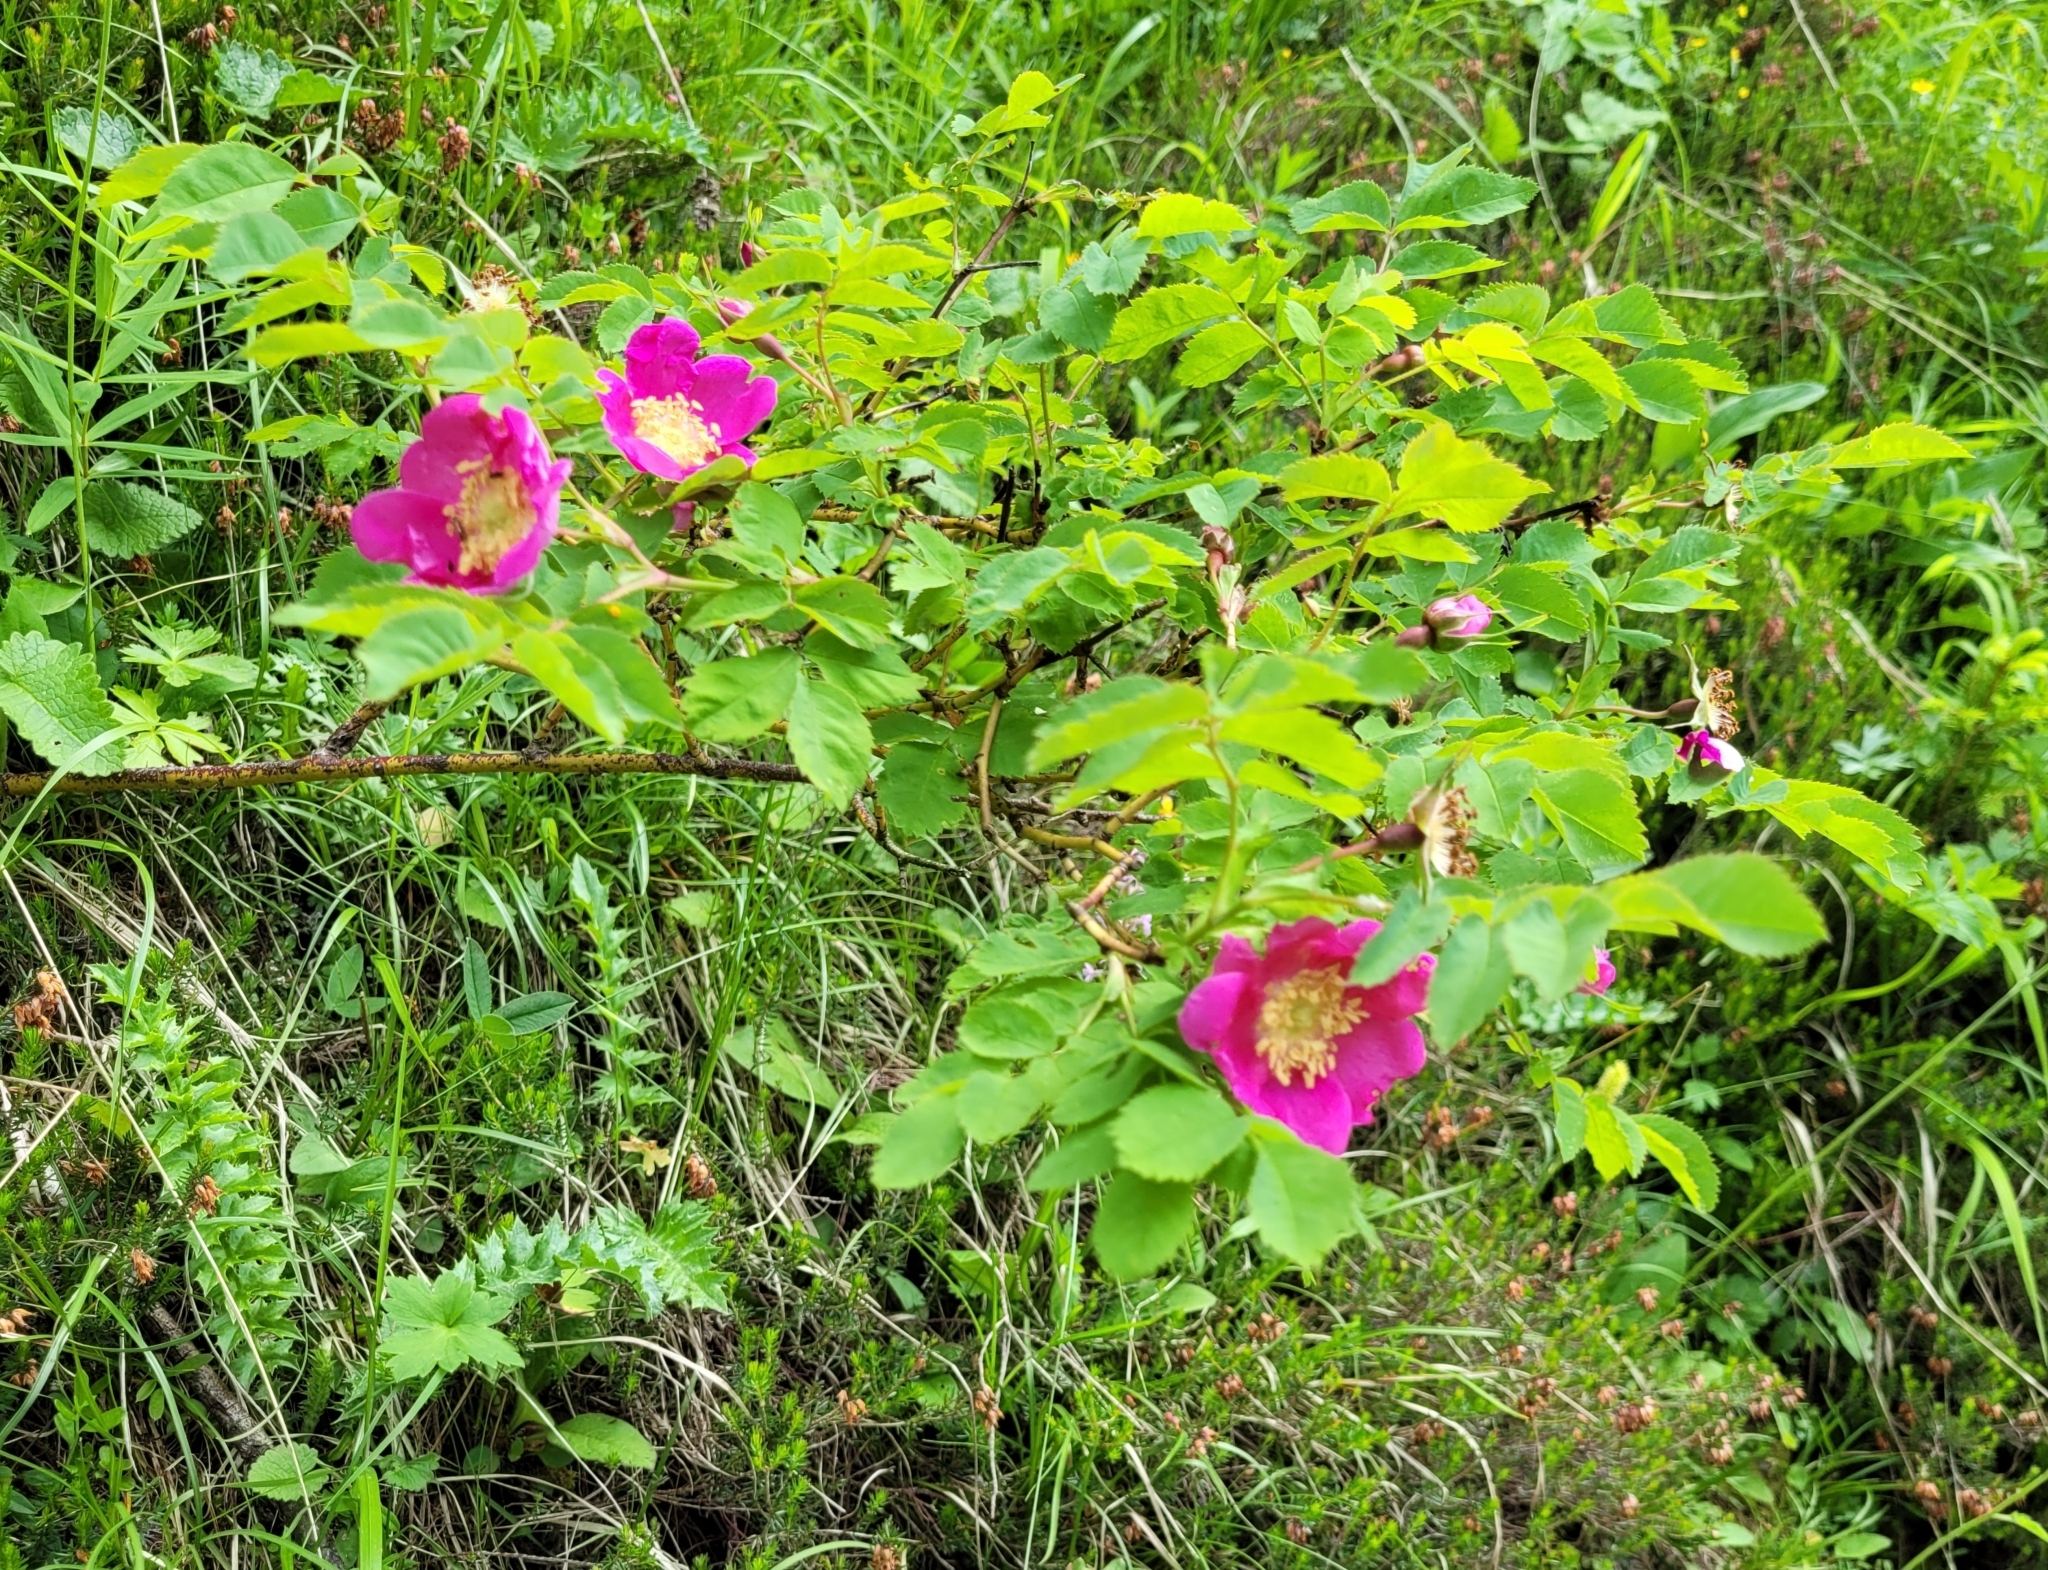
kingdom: Plantae
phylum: Tracheophyta
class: Magnoliopsida
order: Rosales
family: Rosaceae
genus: Rosa
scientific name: Rosa pendulina
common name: Alpine rose
